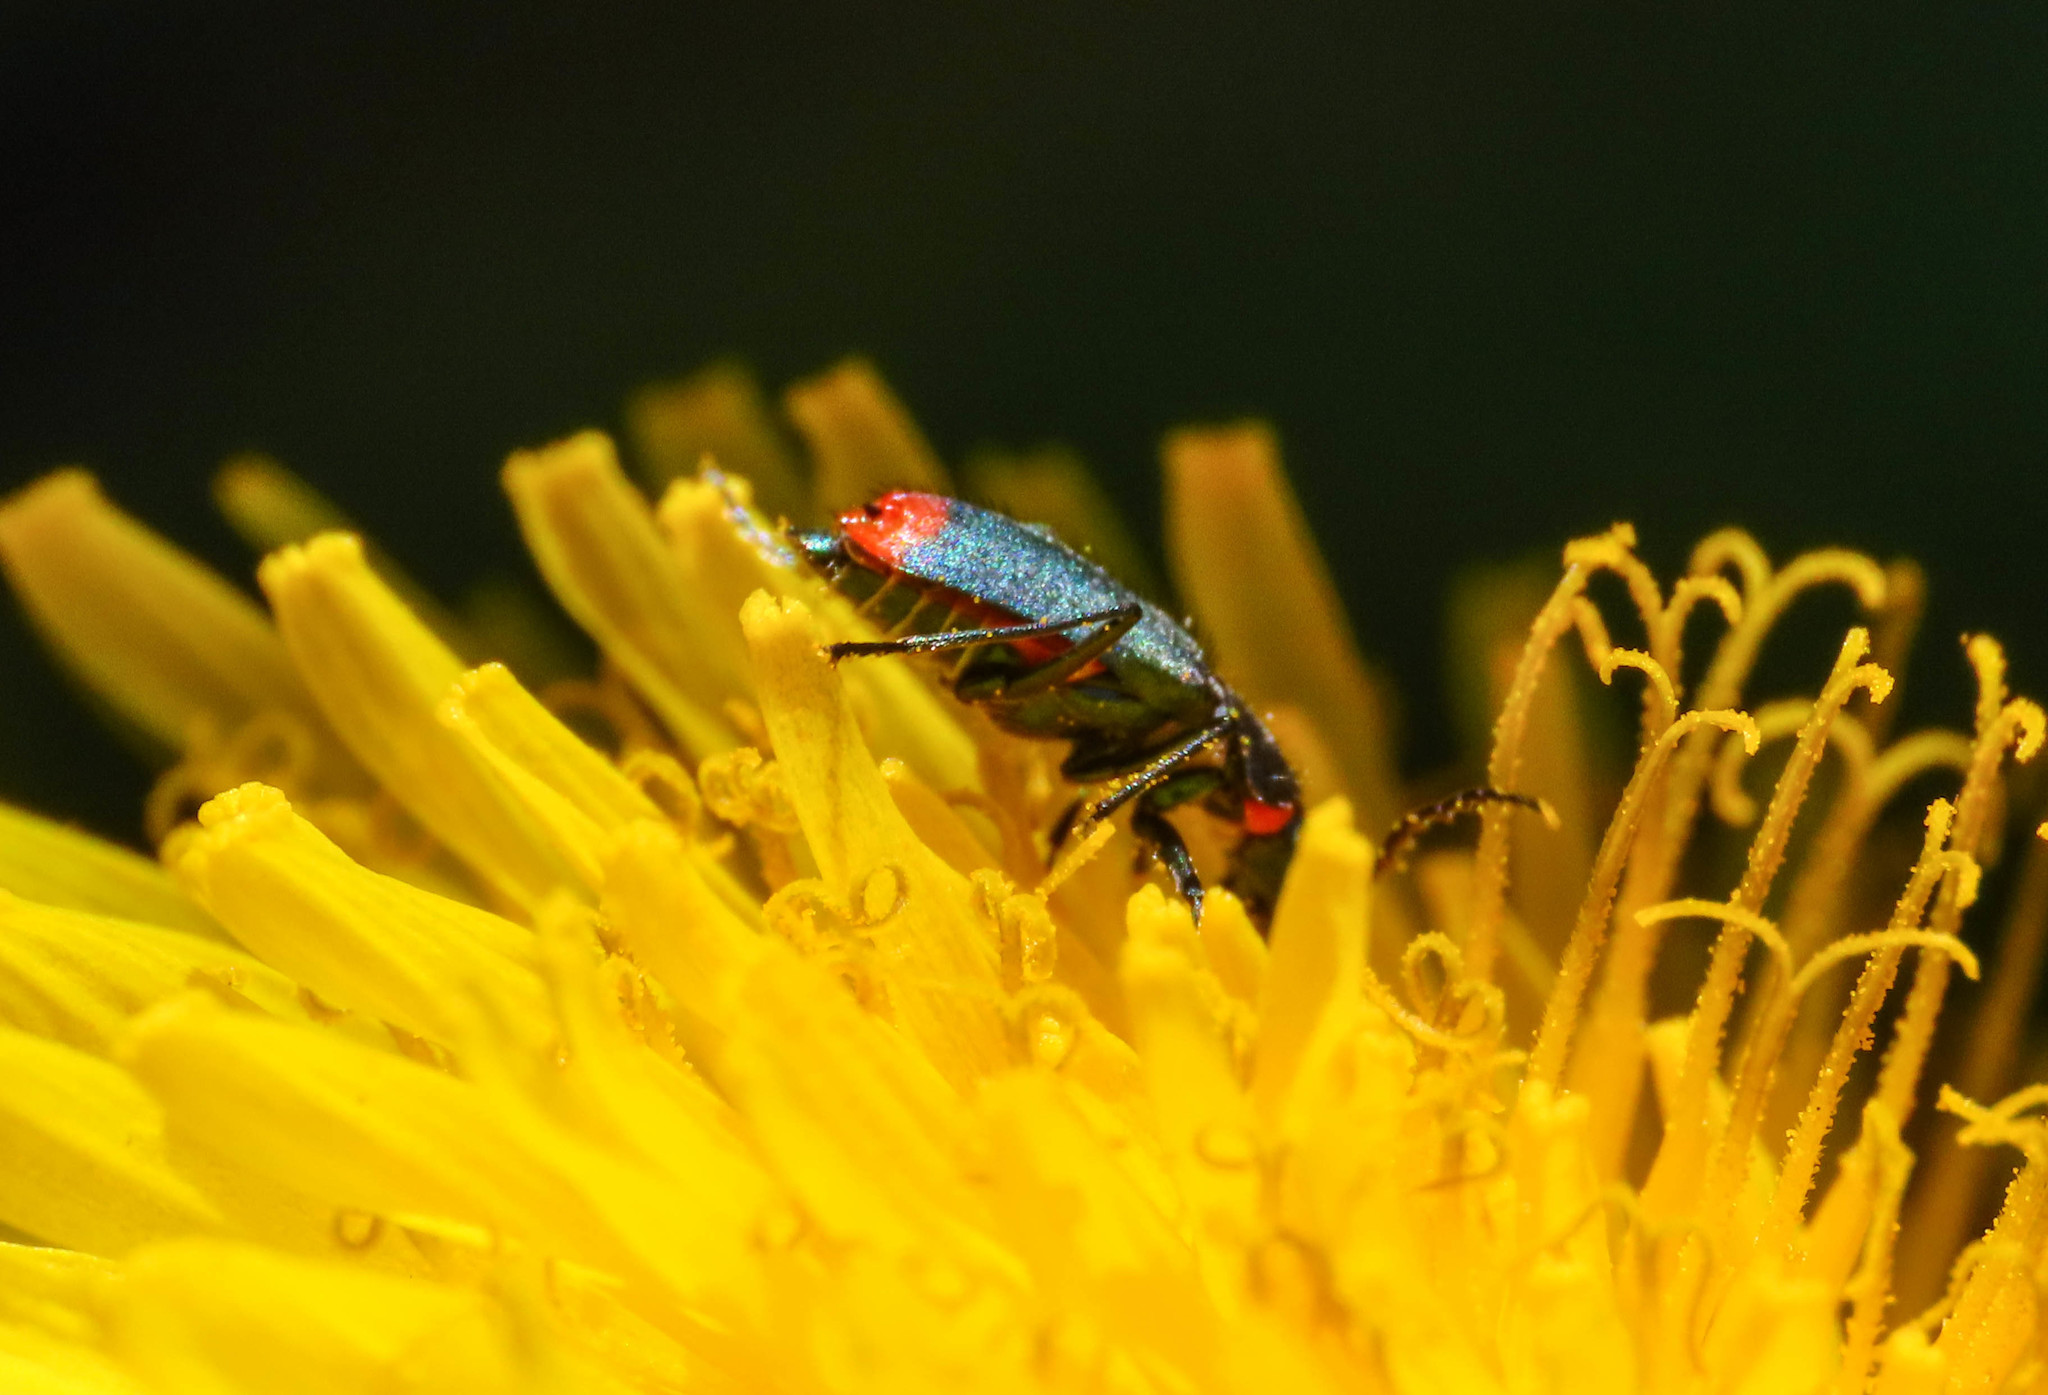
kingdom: Animalia
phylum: Arthropoda
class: Insecta
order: Coleoptera
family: Malachiidae
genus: Clanoptilus
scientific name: Clanoptilus spinipennis
